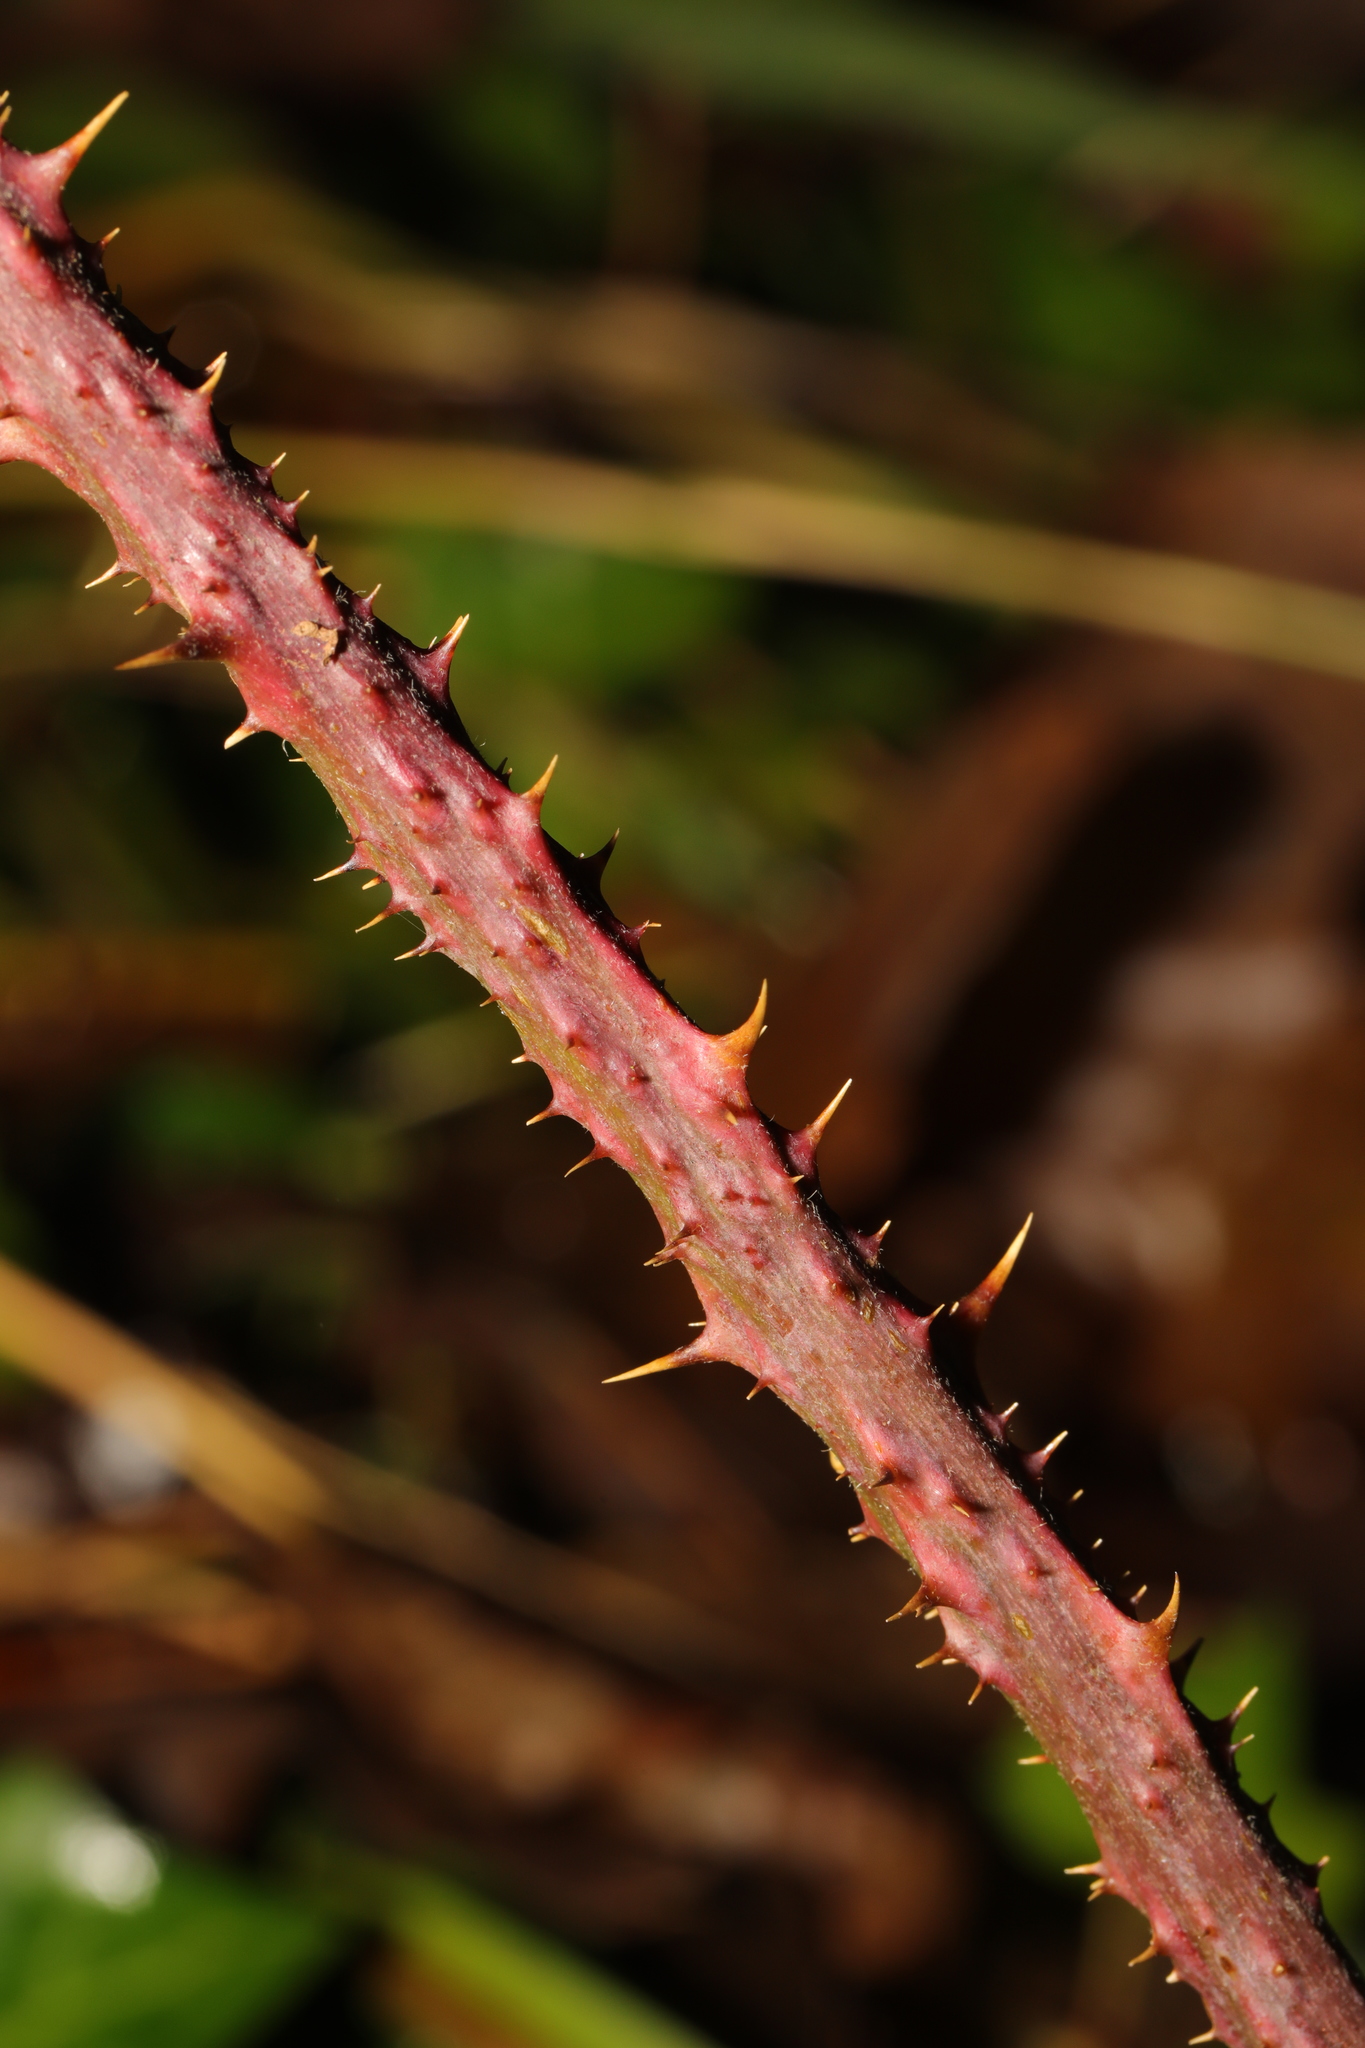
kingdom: Plantae
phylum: Tracheophyta
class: Magnoliopsida
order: Rosales
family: Rosaceae
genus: Rubus
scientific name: Rubus horrefactus
